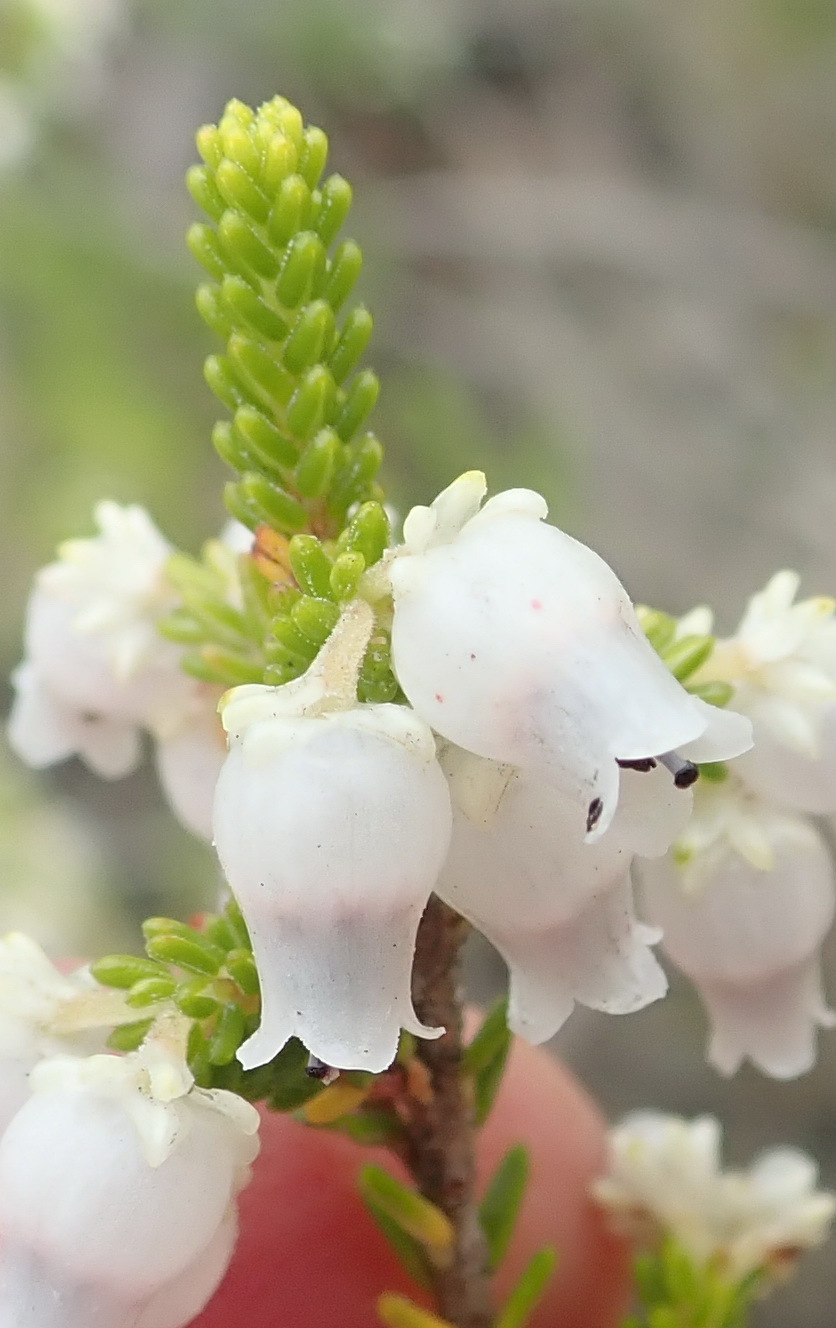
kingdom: Plantae
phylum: Tracheophyta
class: Magnoliopsida
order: Ericales
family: Ericaceae
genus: Erica
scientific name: Erica glomiflora
